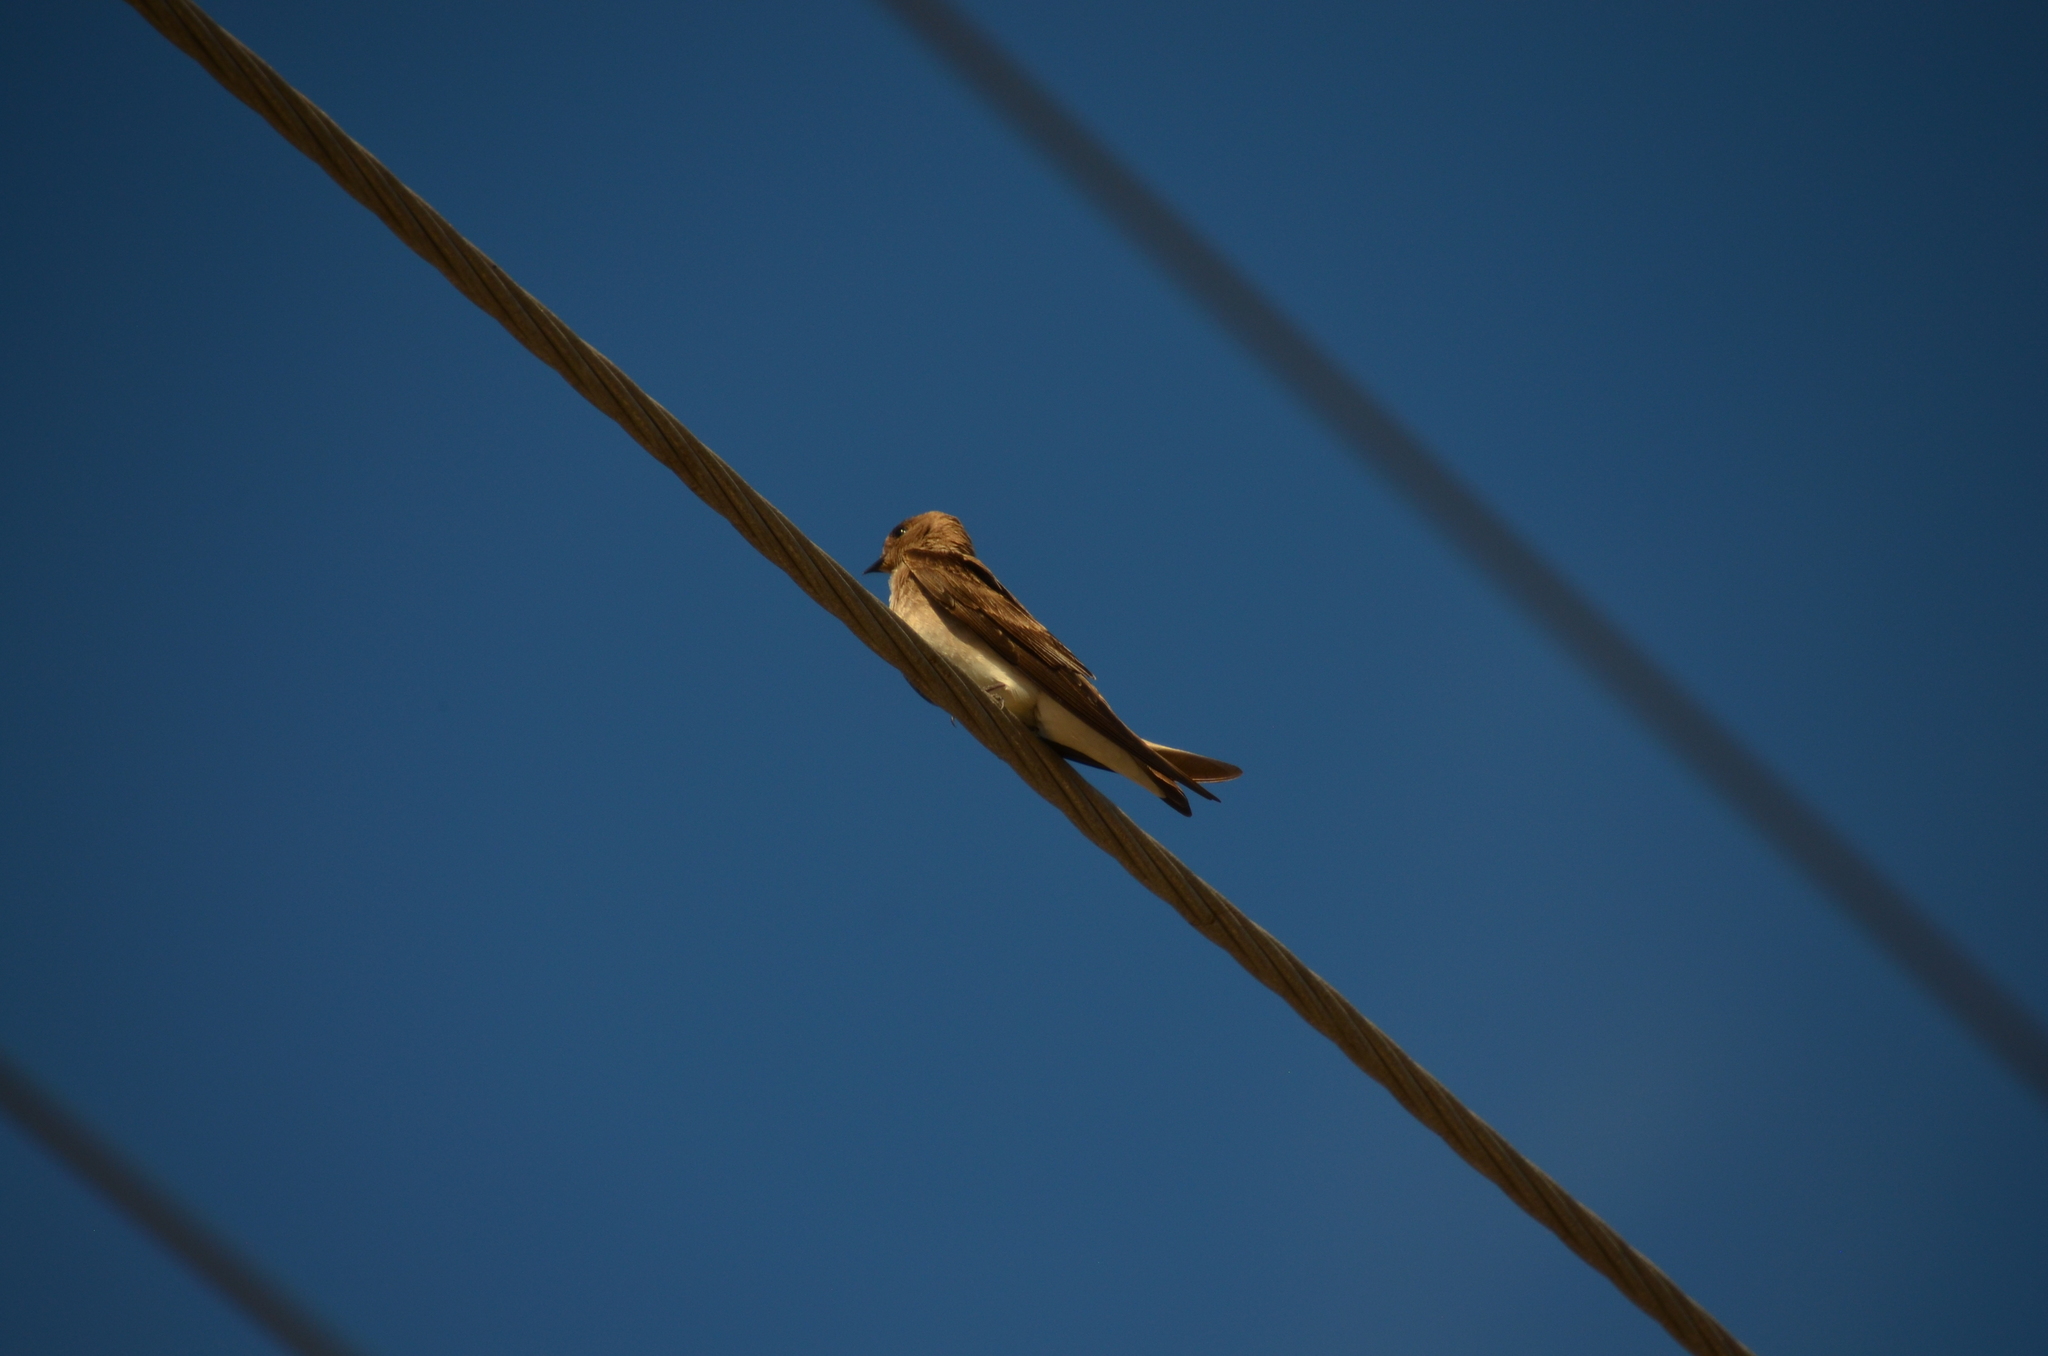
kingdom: Animalia
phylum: Chordata
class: Aves
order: Passeriformes
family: Hirundinidae
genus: Stelgidopteryx
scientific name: Stelgidopteryx serripennis
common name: Northern rough-winged swallow
